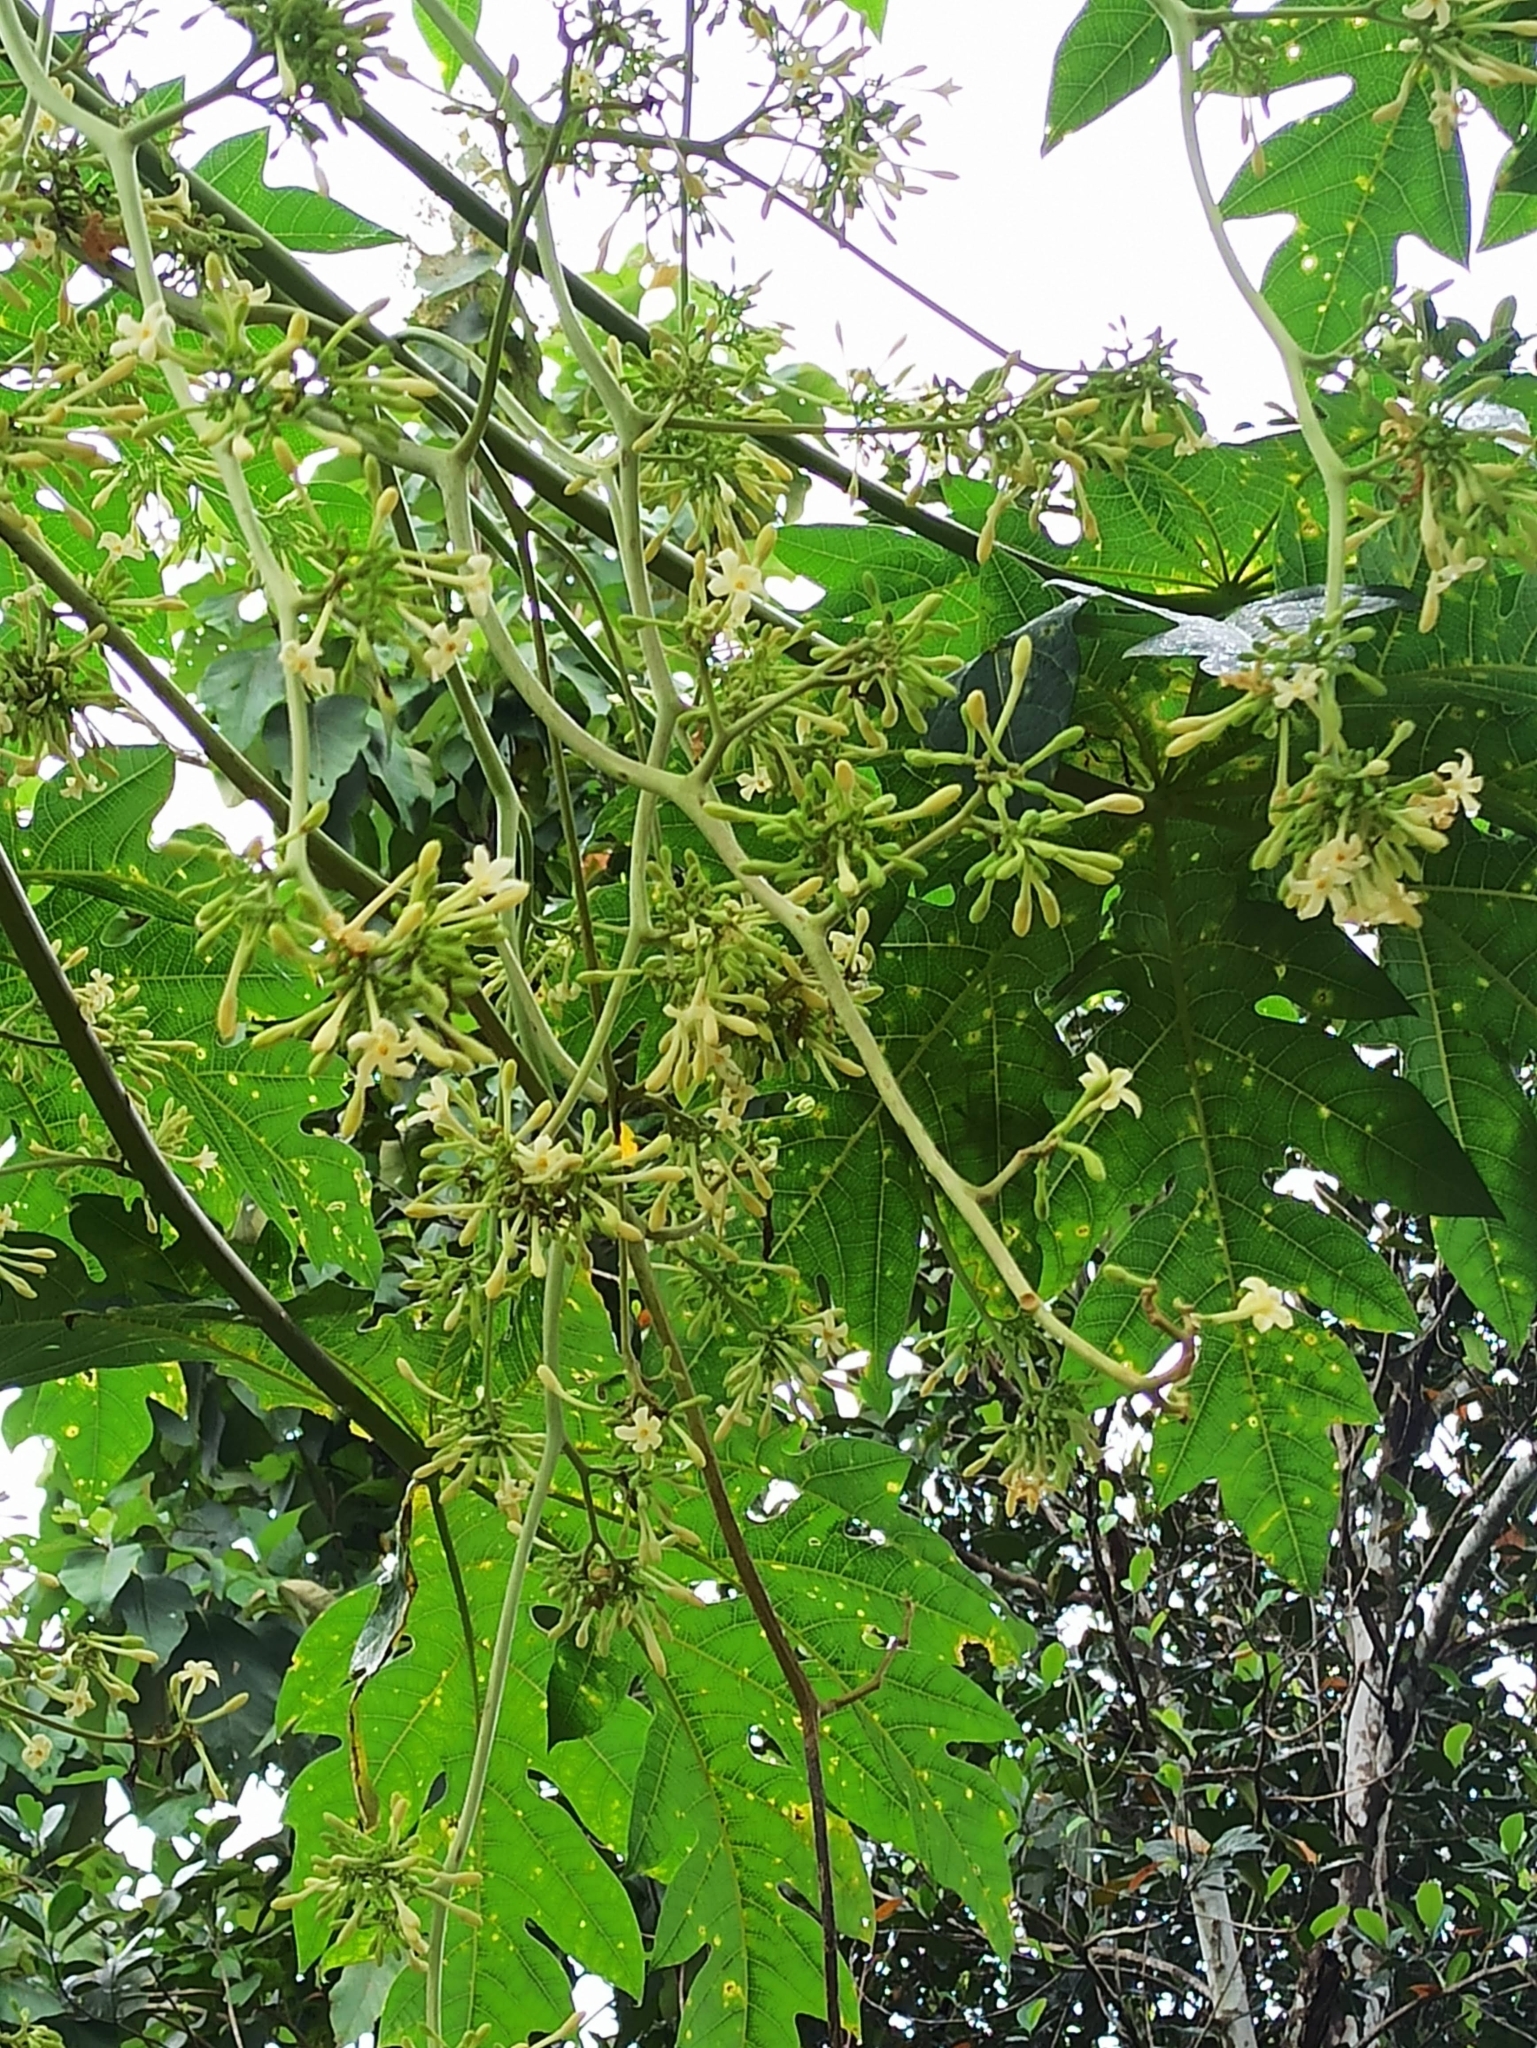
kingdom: Plantae
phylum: Tracheophyta
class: Magnoliopsida
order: Brassicales
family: Caricaceae
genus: Carica
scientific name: Carica papaya
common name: Papaya
